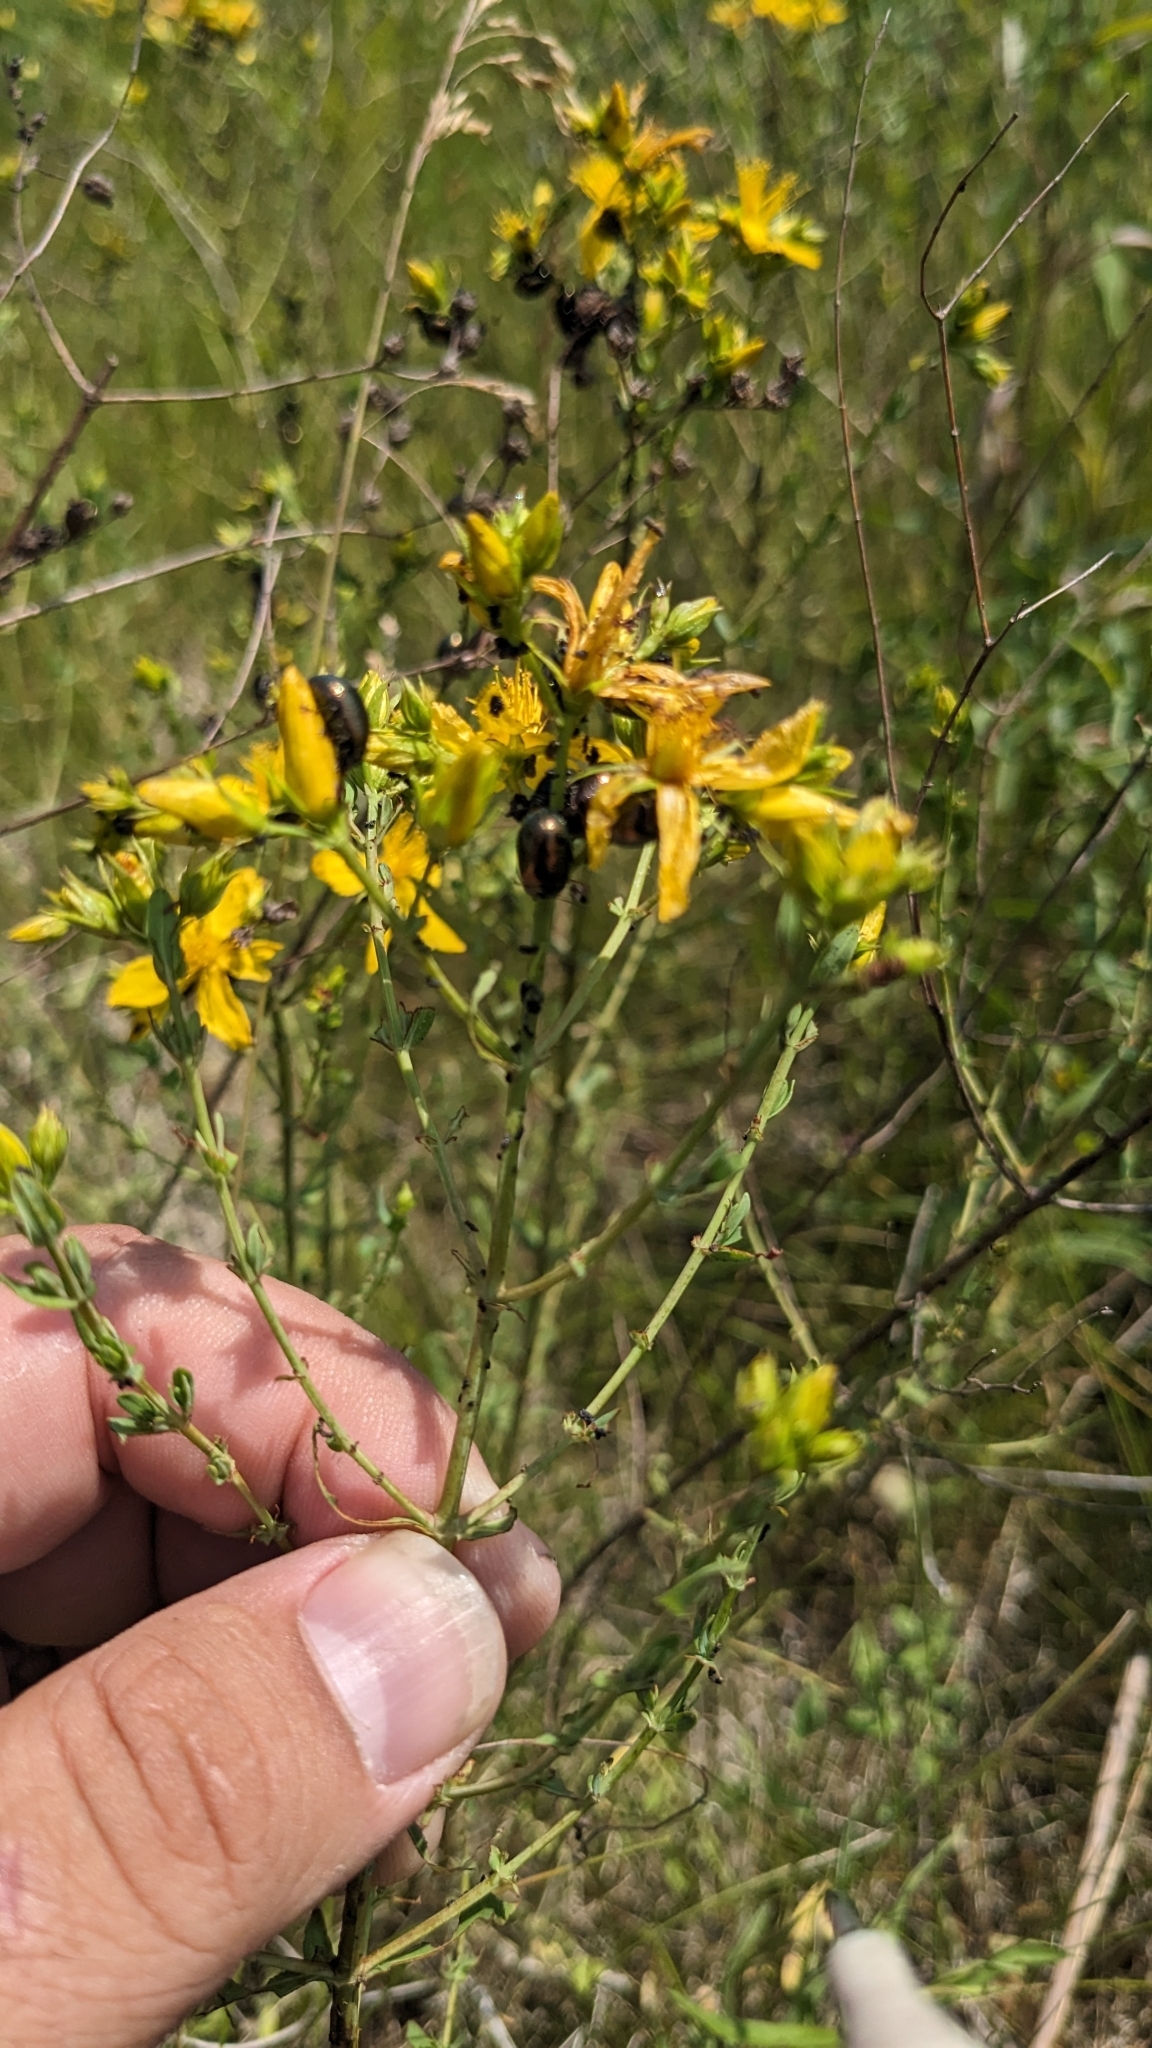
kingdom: Animalia
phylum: Arthropoda
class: Insecta
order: Coleoptera
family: Chrysomelidae
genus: Chrysolina
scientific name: Chrysolina hyperici
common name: St. johnswort beetle
